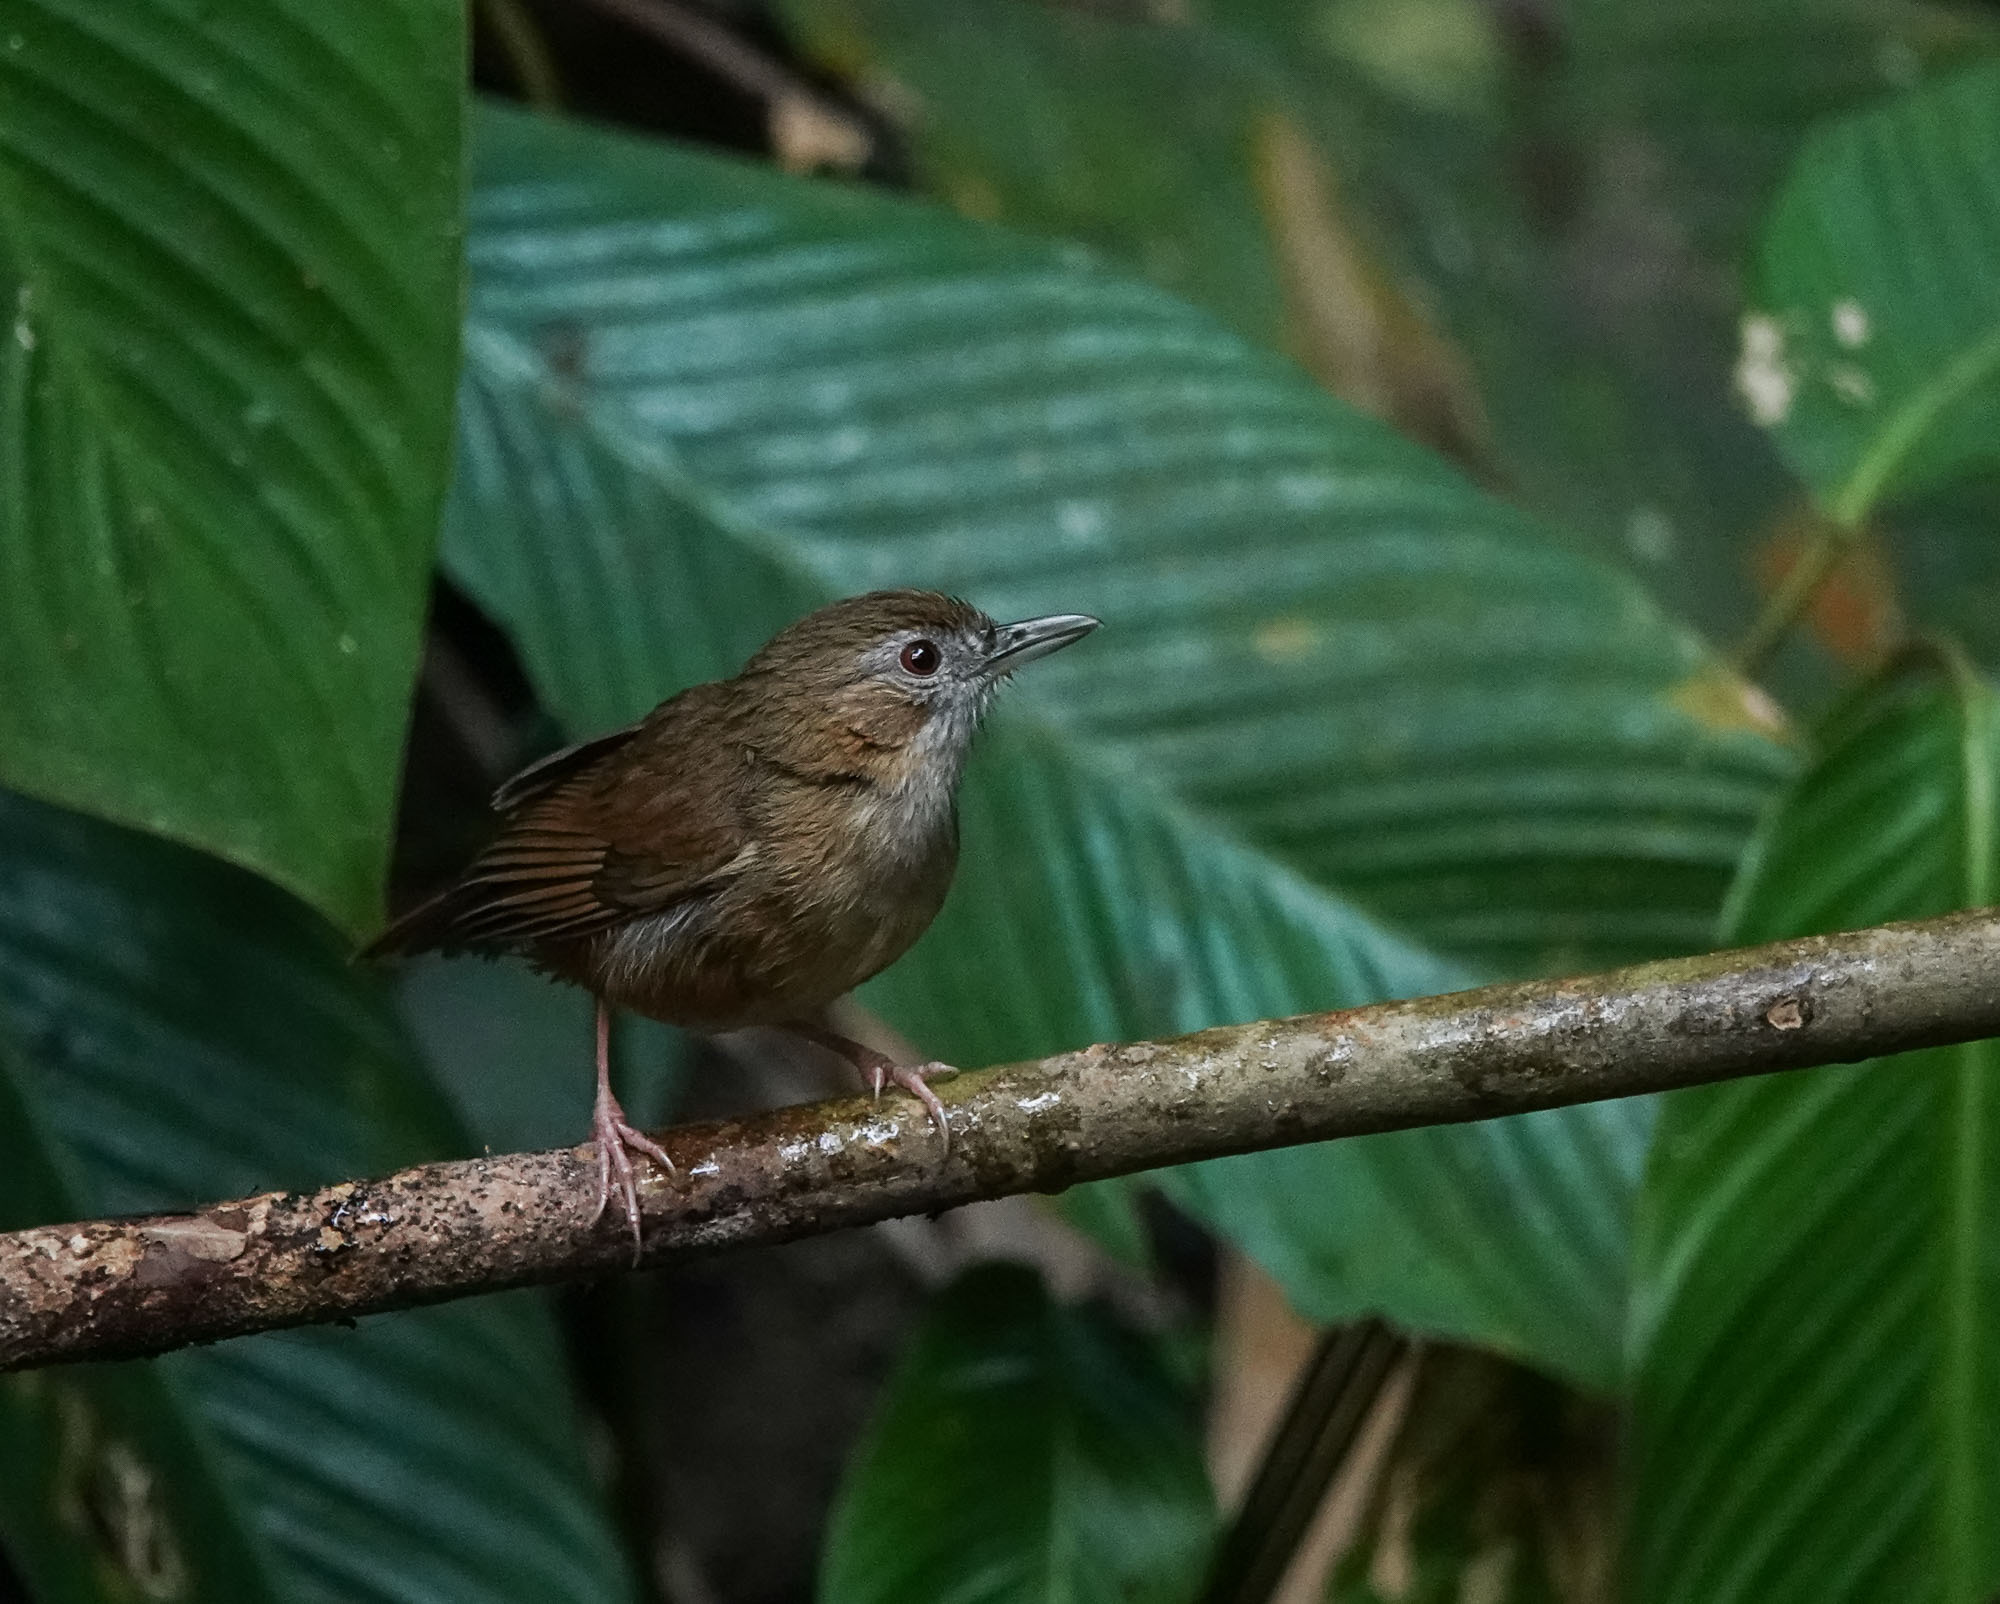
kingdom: Animalia
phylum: Chordata
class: Aves
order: Passeriformes
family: Pellorneidae
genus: Malacocincla
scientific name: Malacocincla abbotti
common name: Abbott's babbler
